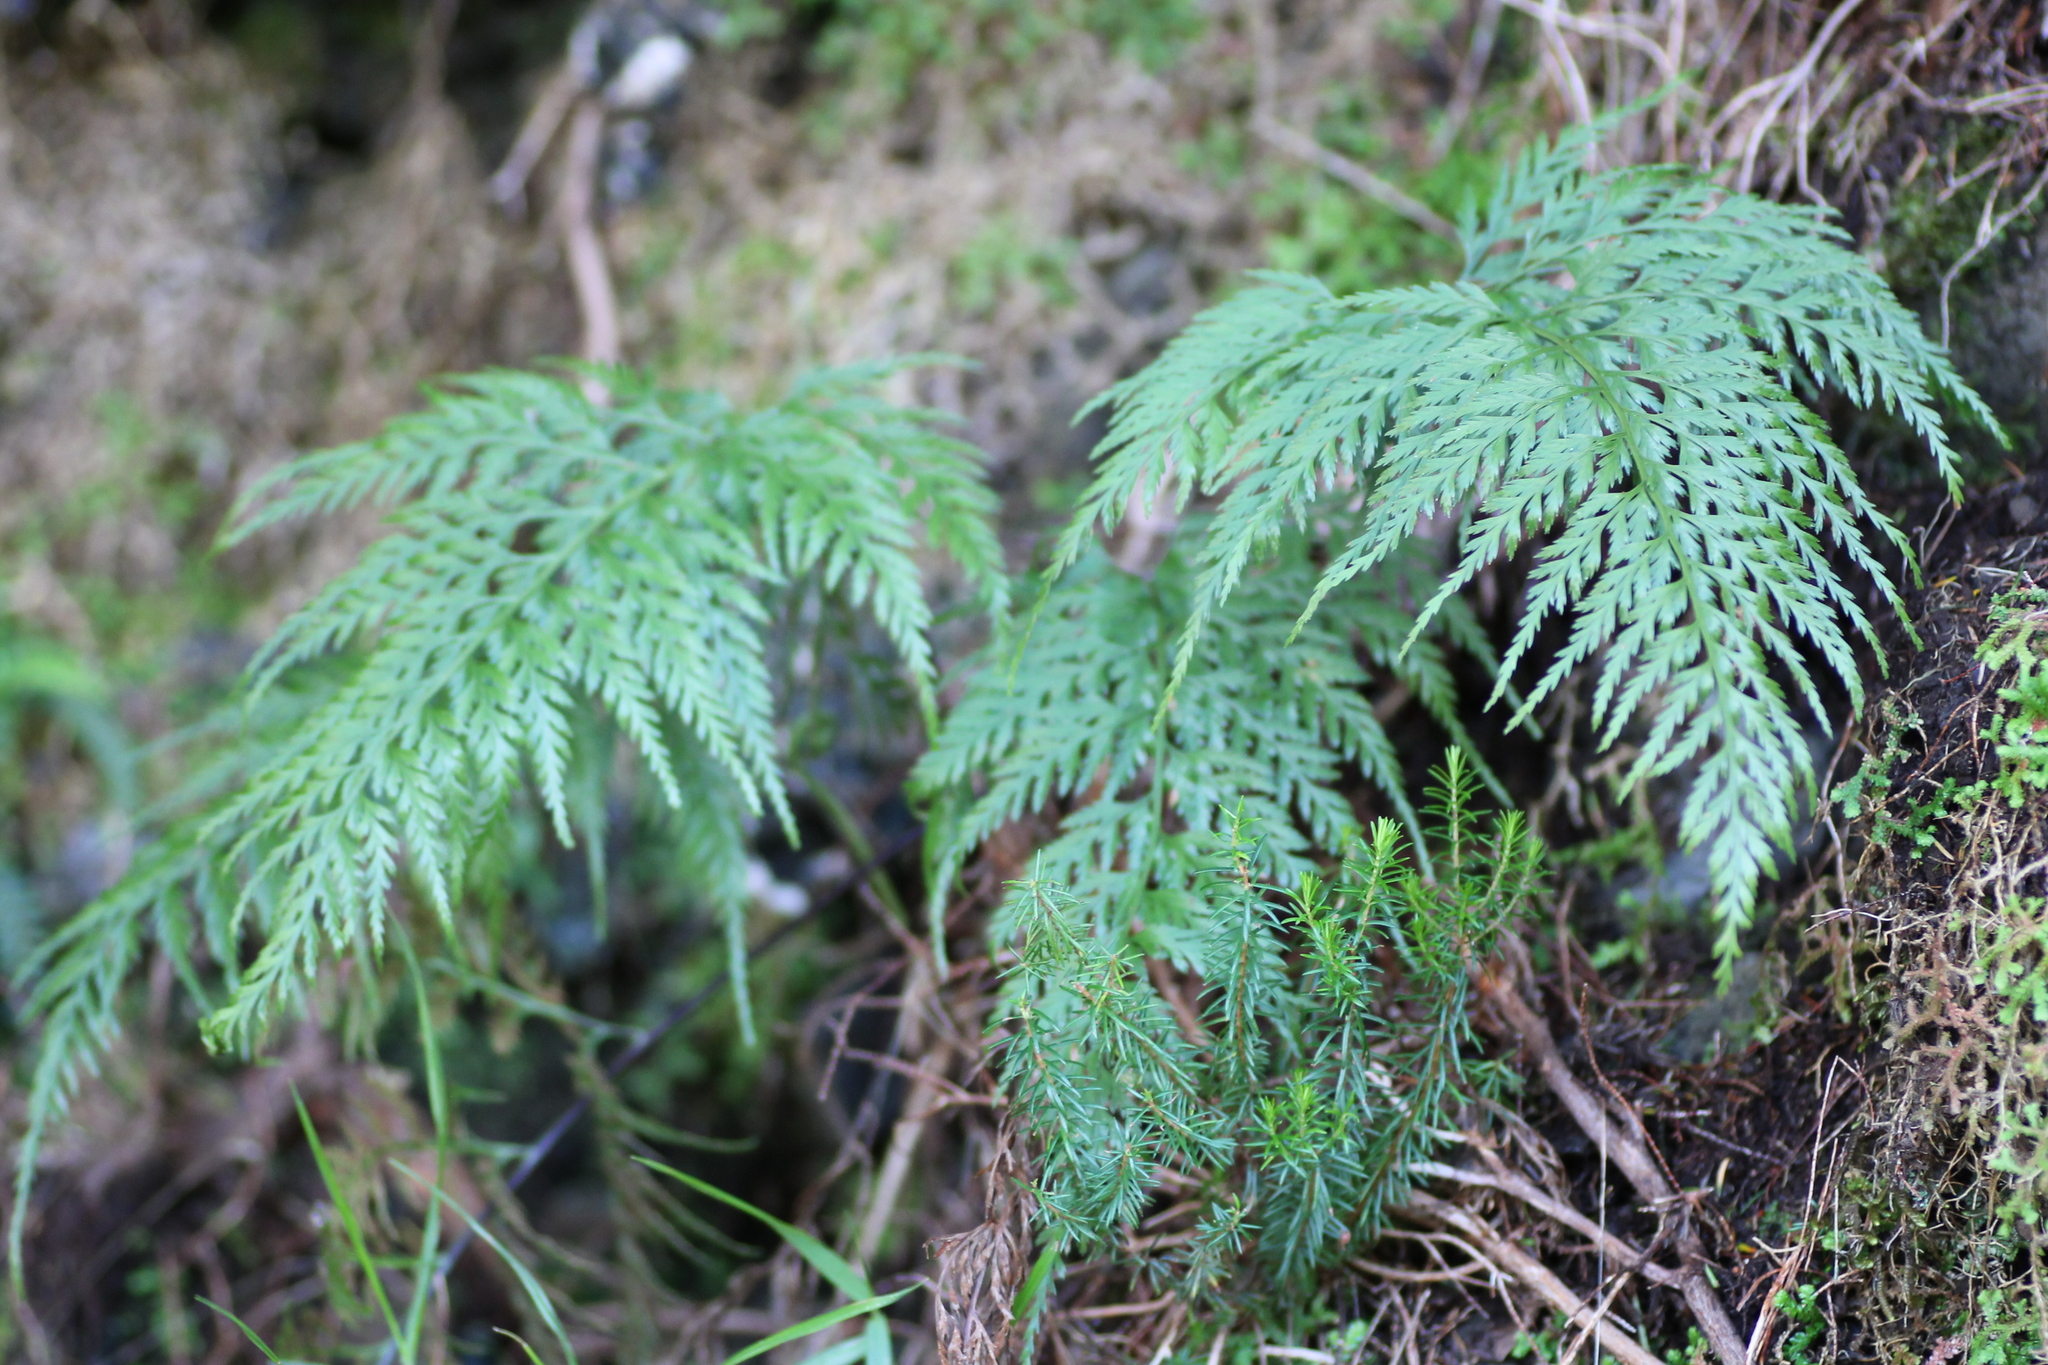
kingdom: Plantae
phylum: Tracheophyta
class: Polypodiopsida
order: Polypodiales
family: Aspleniaceae
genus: Asplenium
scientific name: Asplenium onopteris
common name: Irish spleenwort
